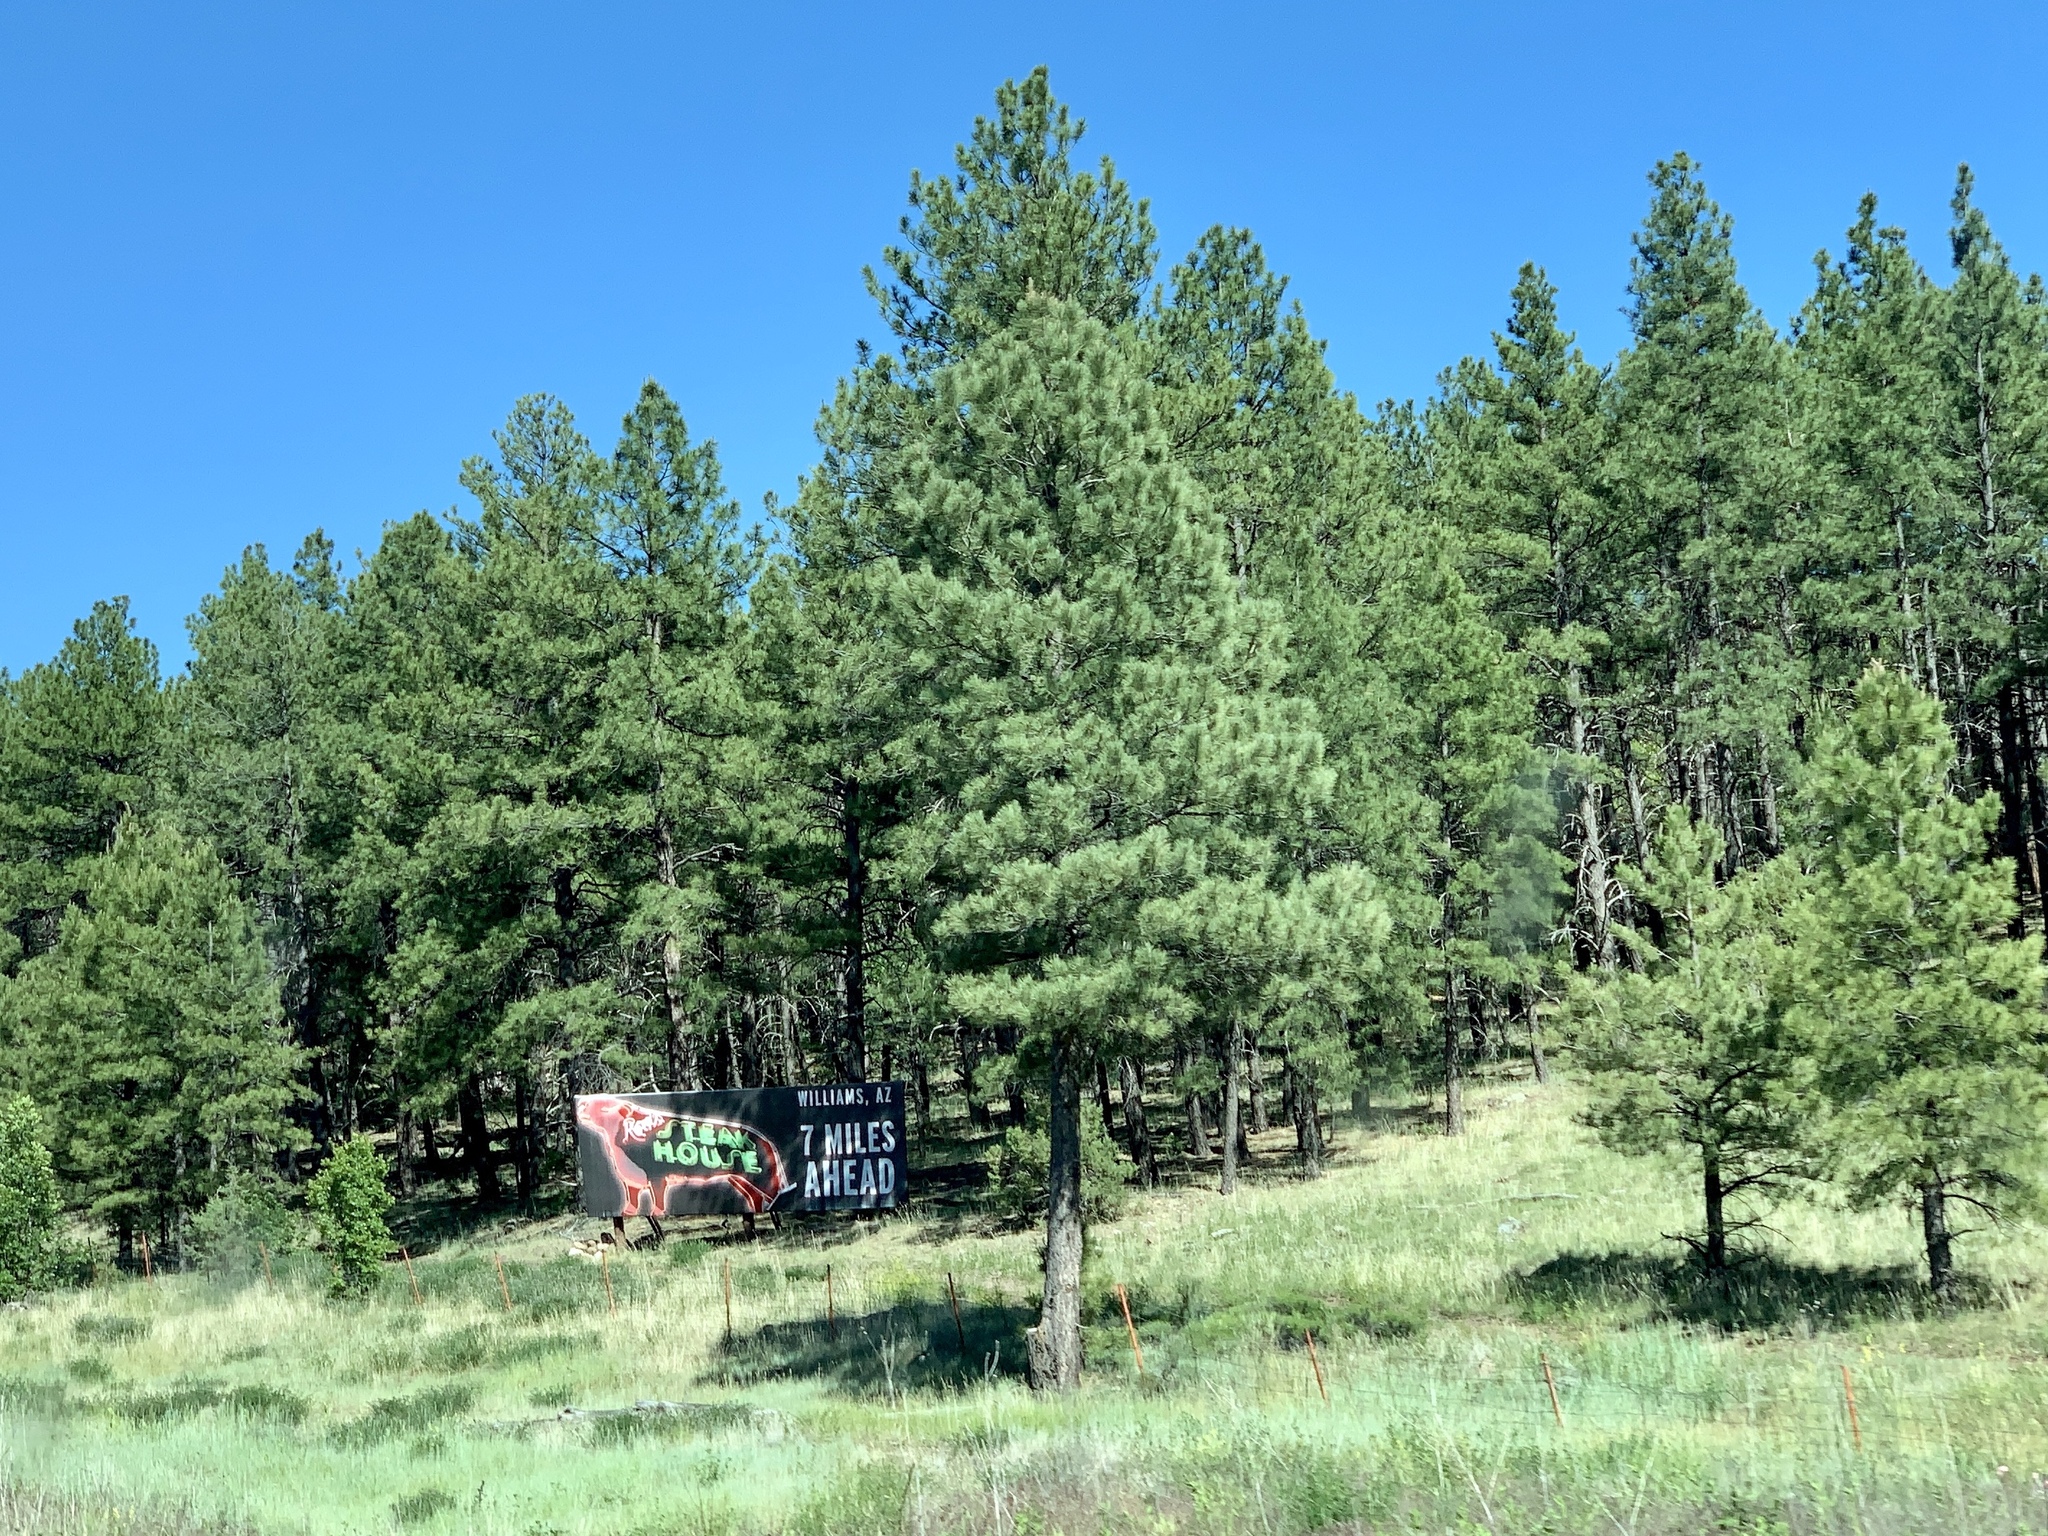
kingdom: Plantae
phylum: Tracheophyta
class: Pinopsida
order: Pinales
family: Pinaceae
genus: Pinus
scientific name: Pinus ponderosa
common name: Western yellow-pine
